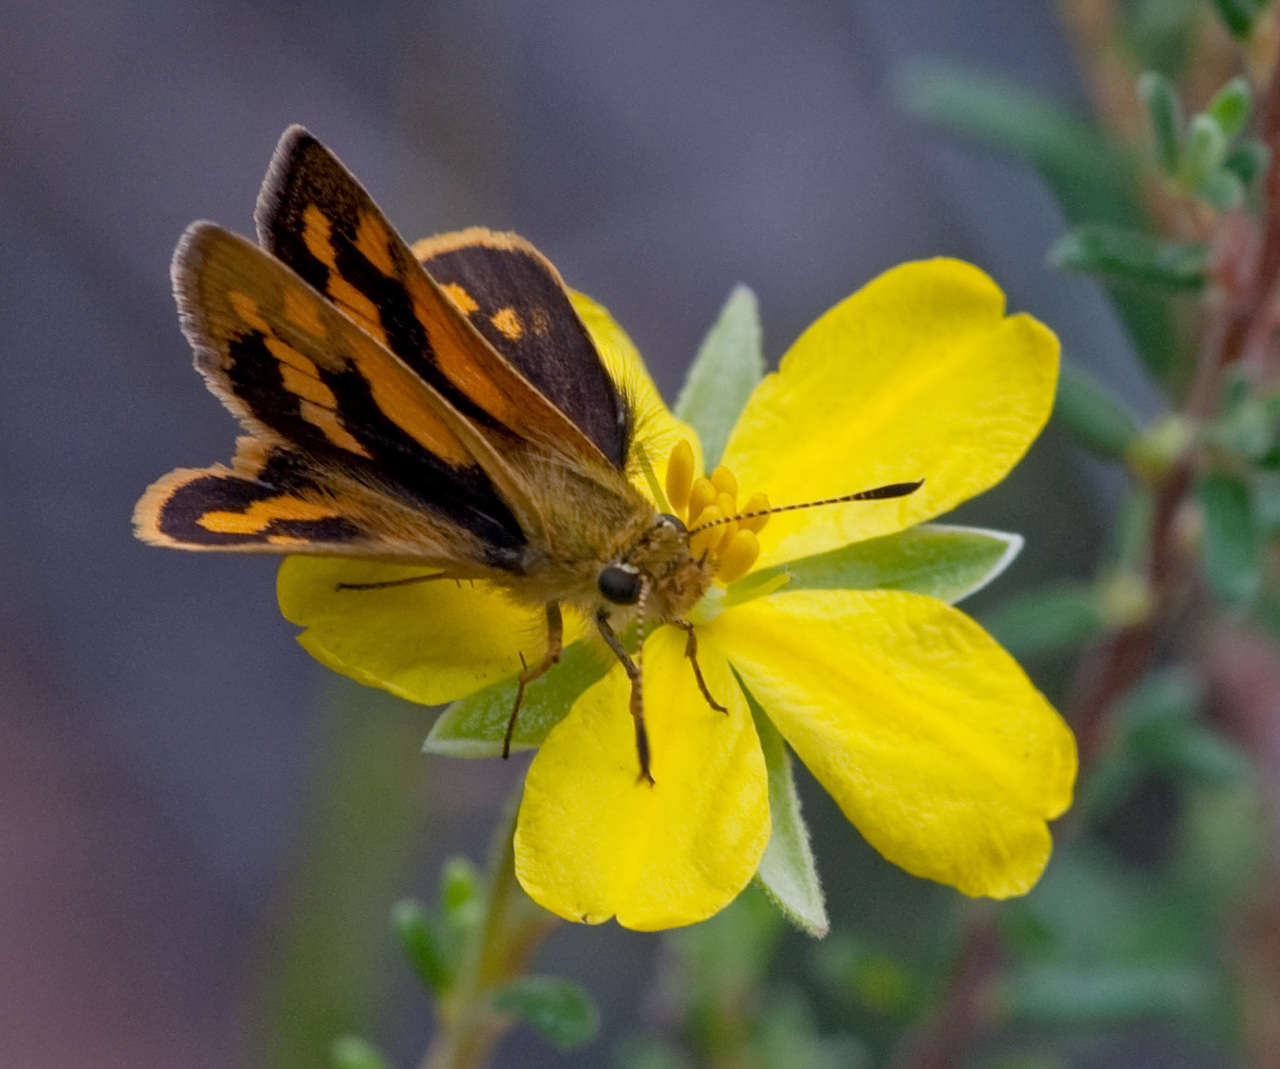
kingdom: Plantae
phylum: Tracheophyta
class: Magnoliopsida
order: Dilleniales
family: Dilleniaceae
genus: Hibbertia
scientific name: Hibbertia riparia
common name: Erect guinea-flower
